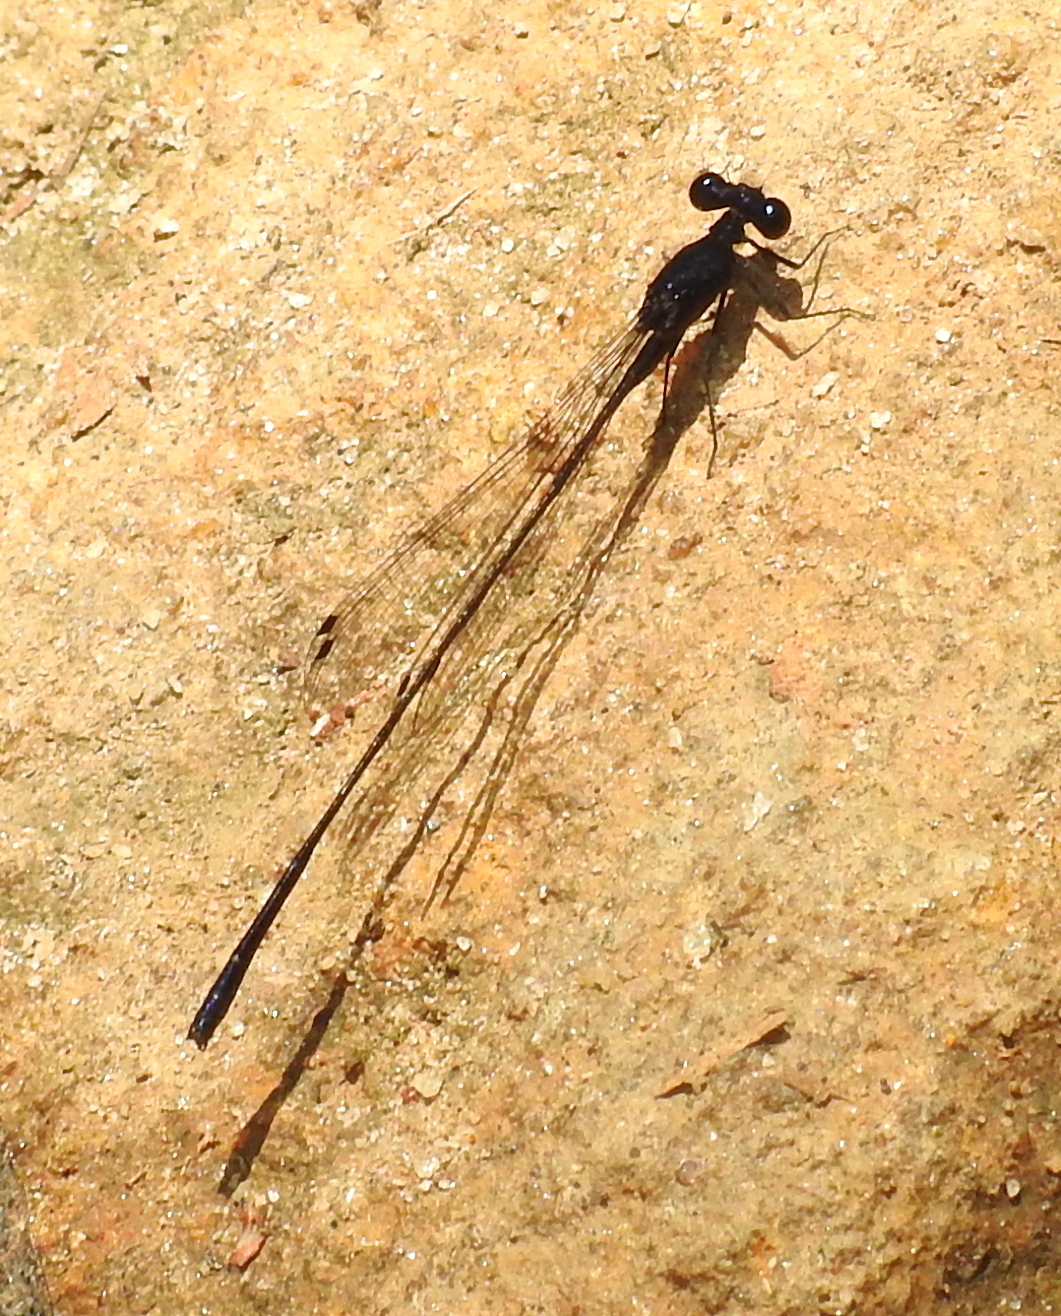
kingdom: Animalia
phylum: Arthropoda
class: Insecta
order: Odonata
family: Platycnemididae
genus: Elattoneura
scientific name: Elattoneura centralis
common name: Dark-glittering threadtail
